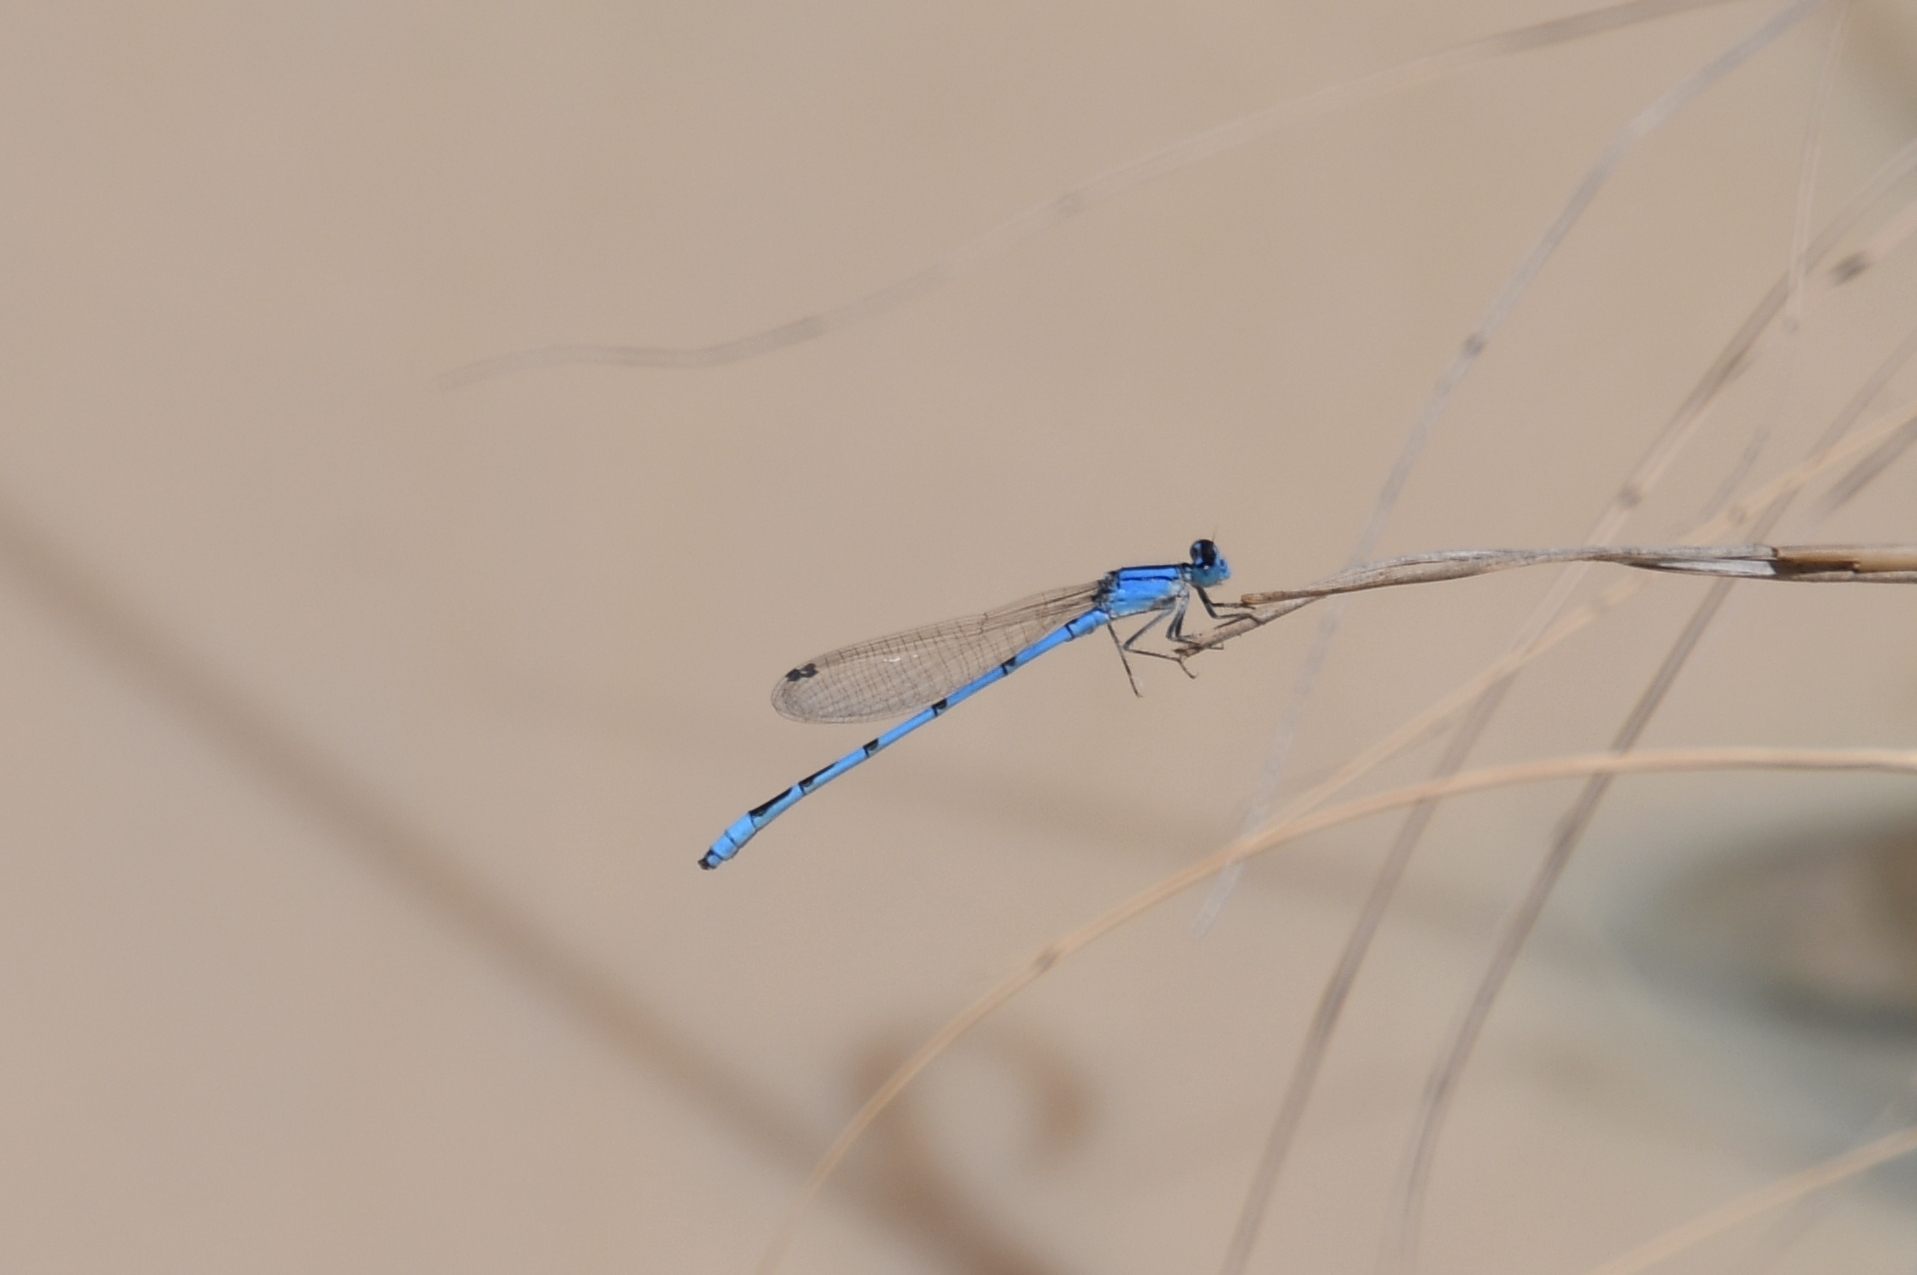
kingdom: Animalia
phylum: Arthropoda
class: Insecta
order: Odonata
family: Coenagrionidae
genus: Enallagma
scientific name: Enallagma civile
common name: Damselfly
